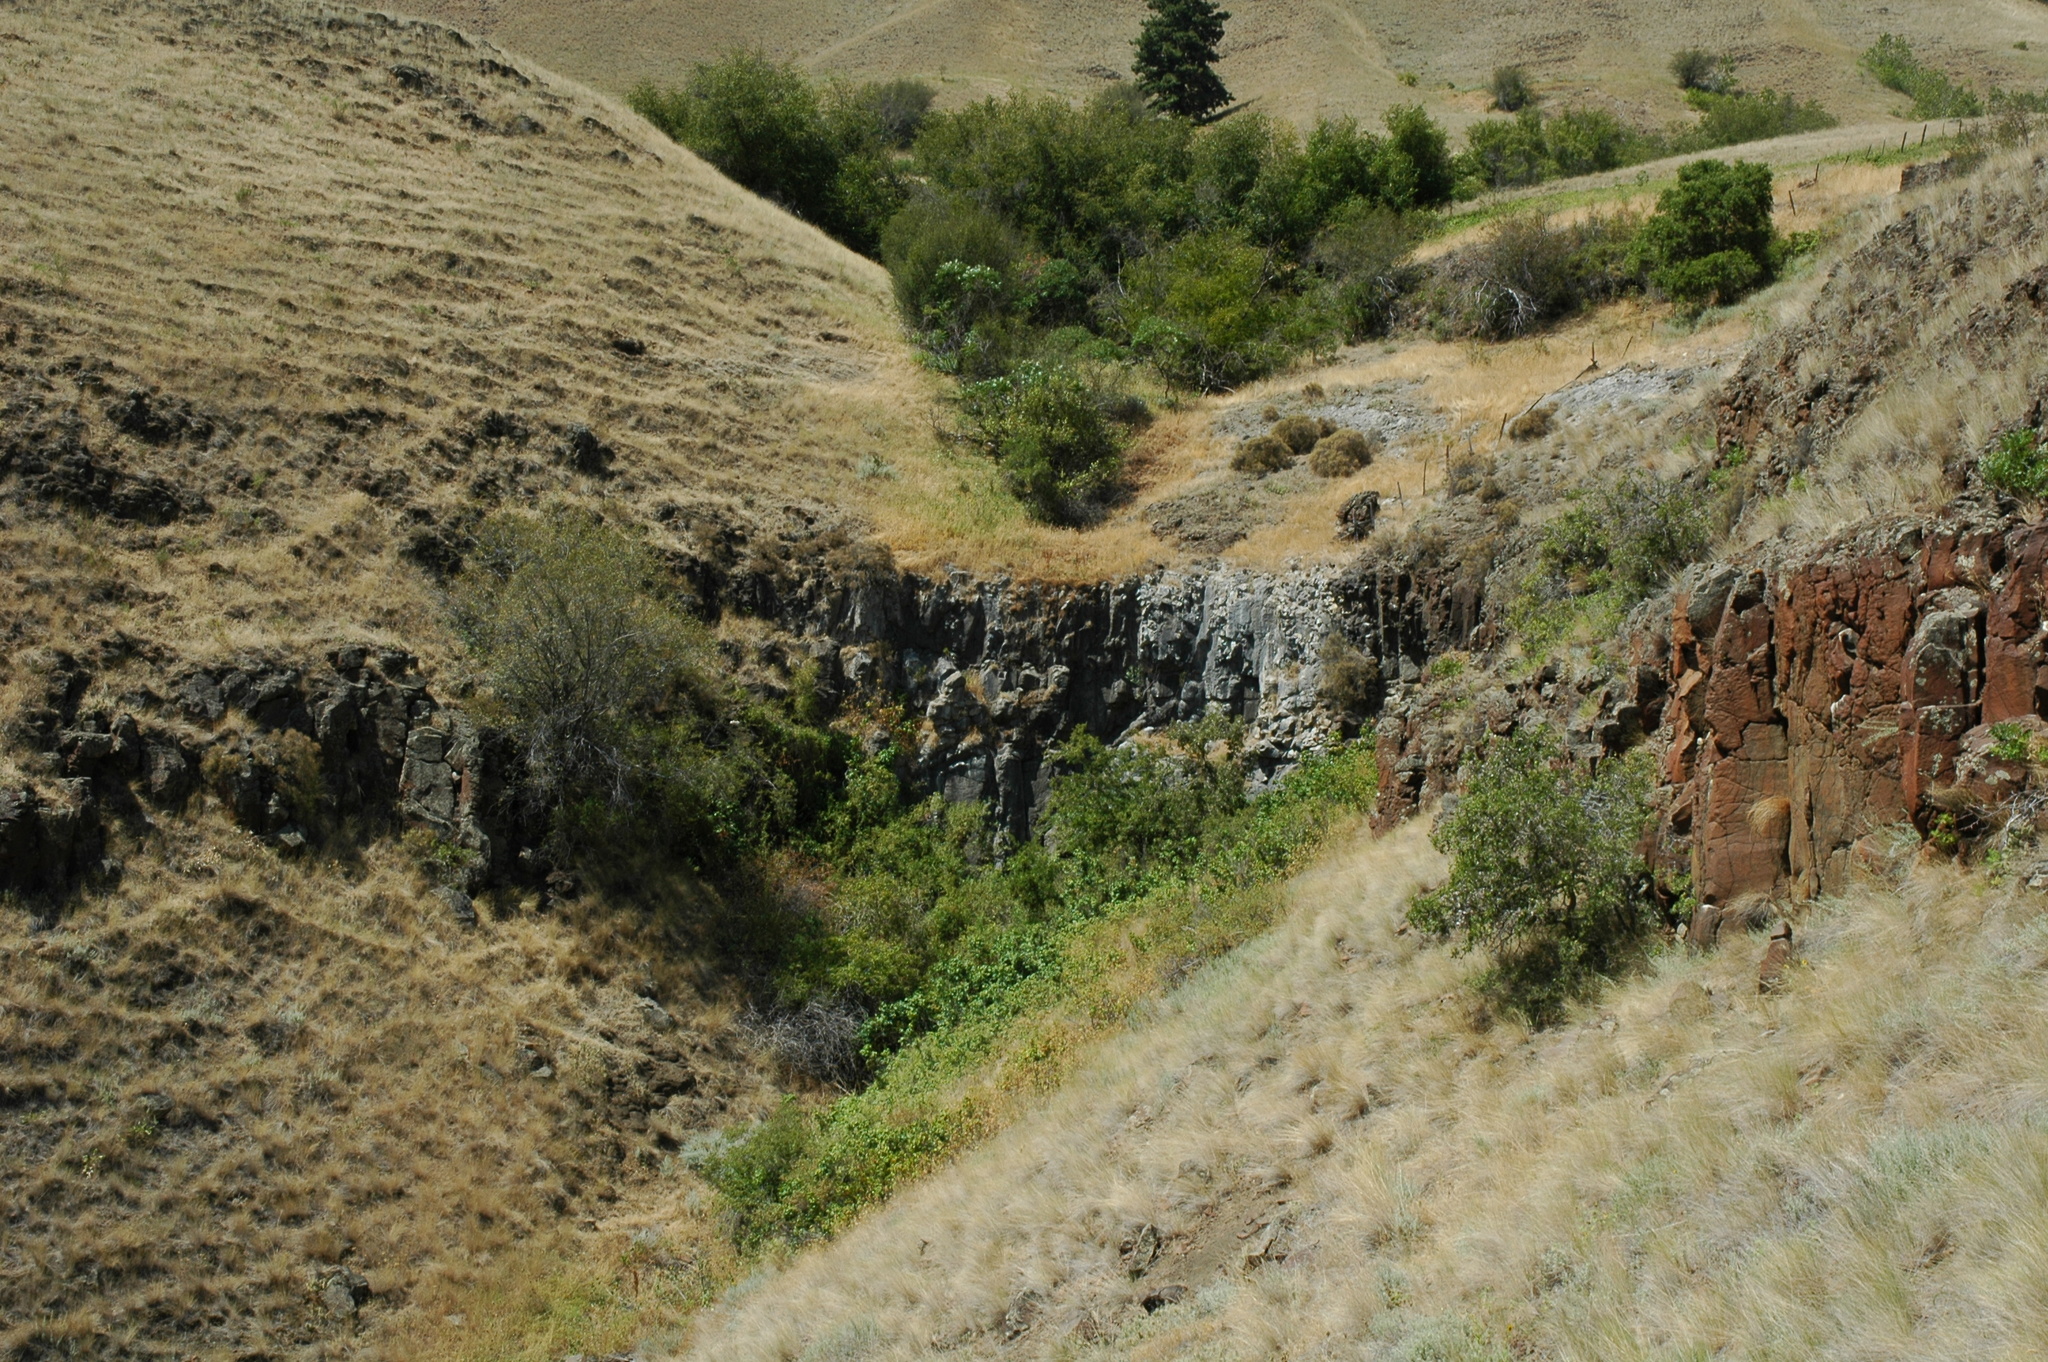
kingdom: Plantae
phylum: Tracheophyta
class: Polypodiopsida
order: Polypodiales
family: Pteridaceae
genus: Myriopteris
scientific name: Myriopteris gracilis
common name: Fee's lip fern
